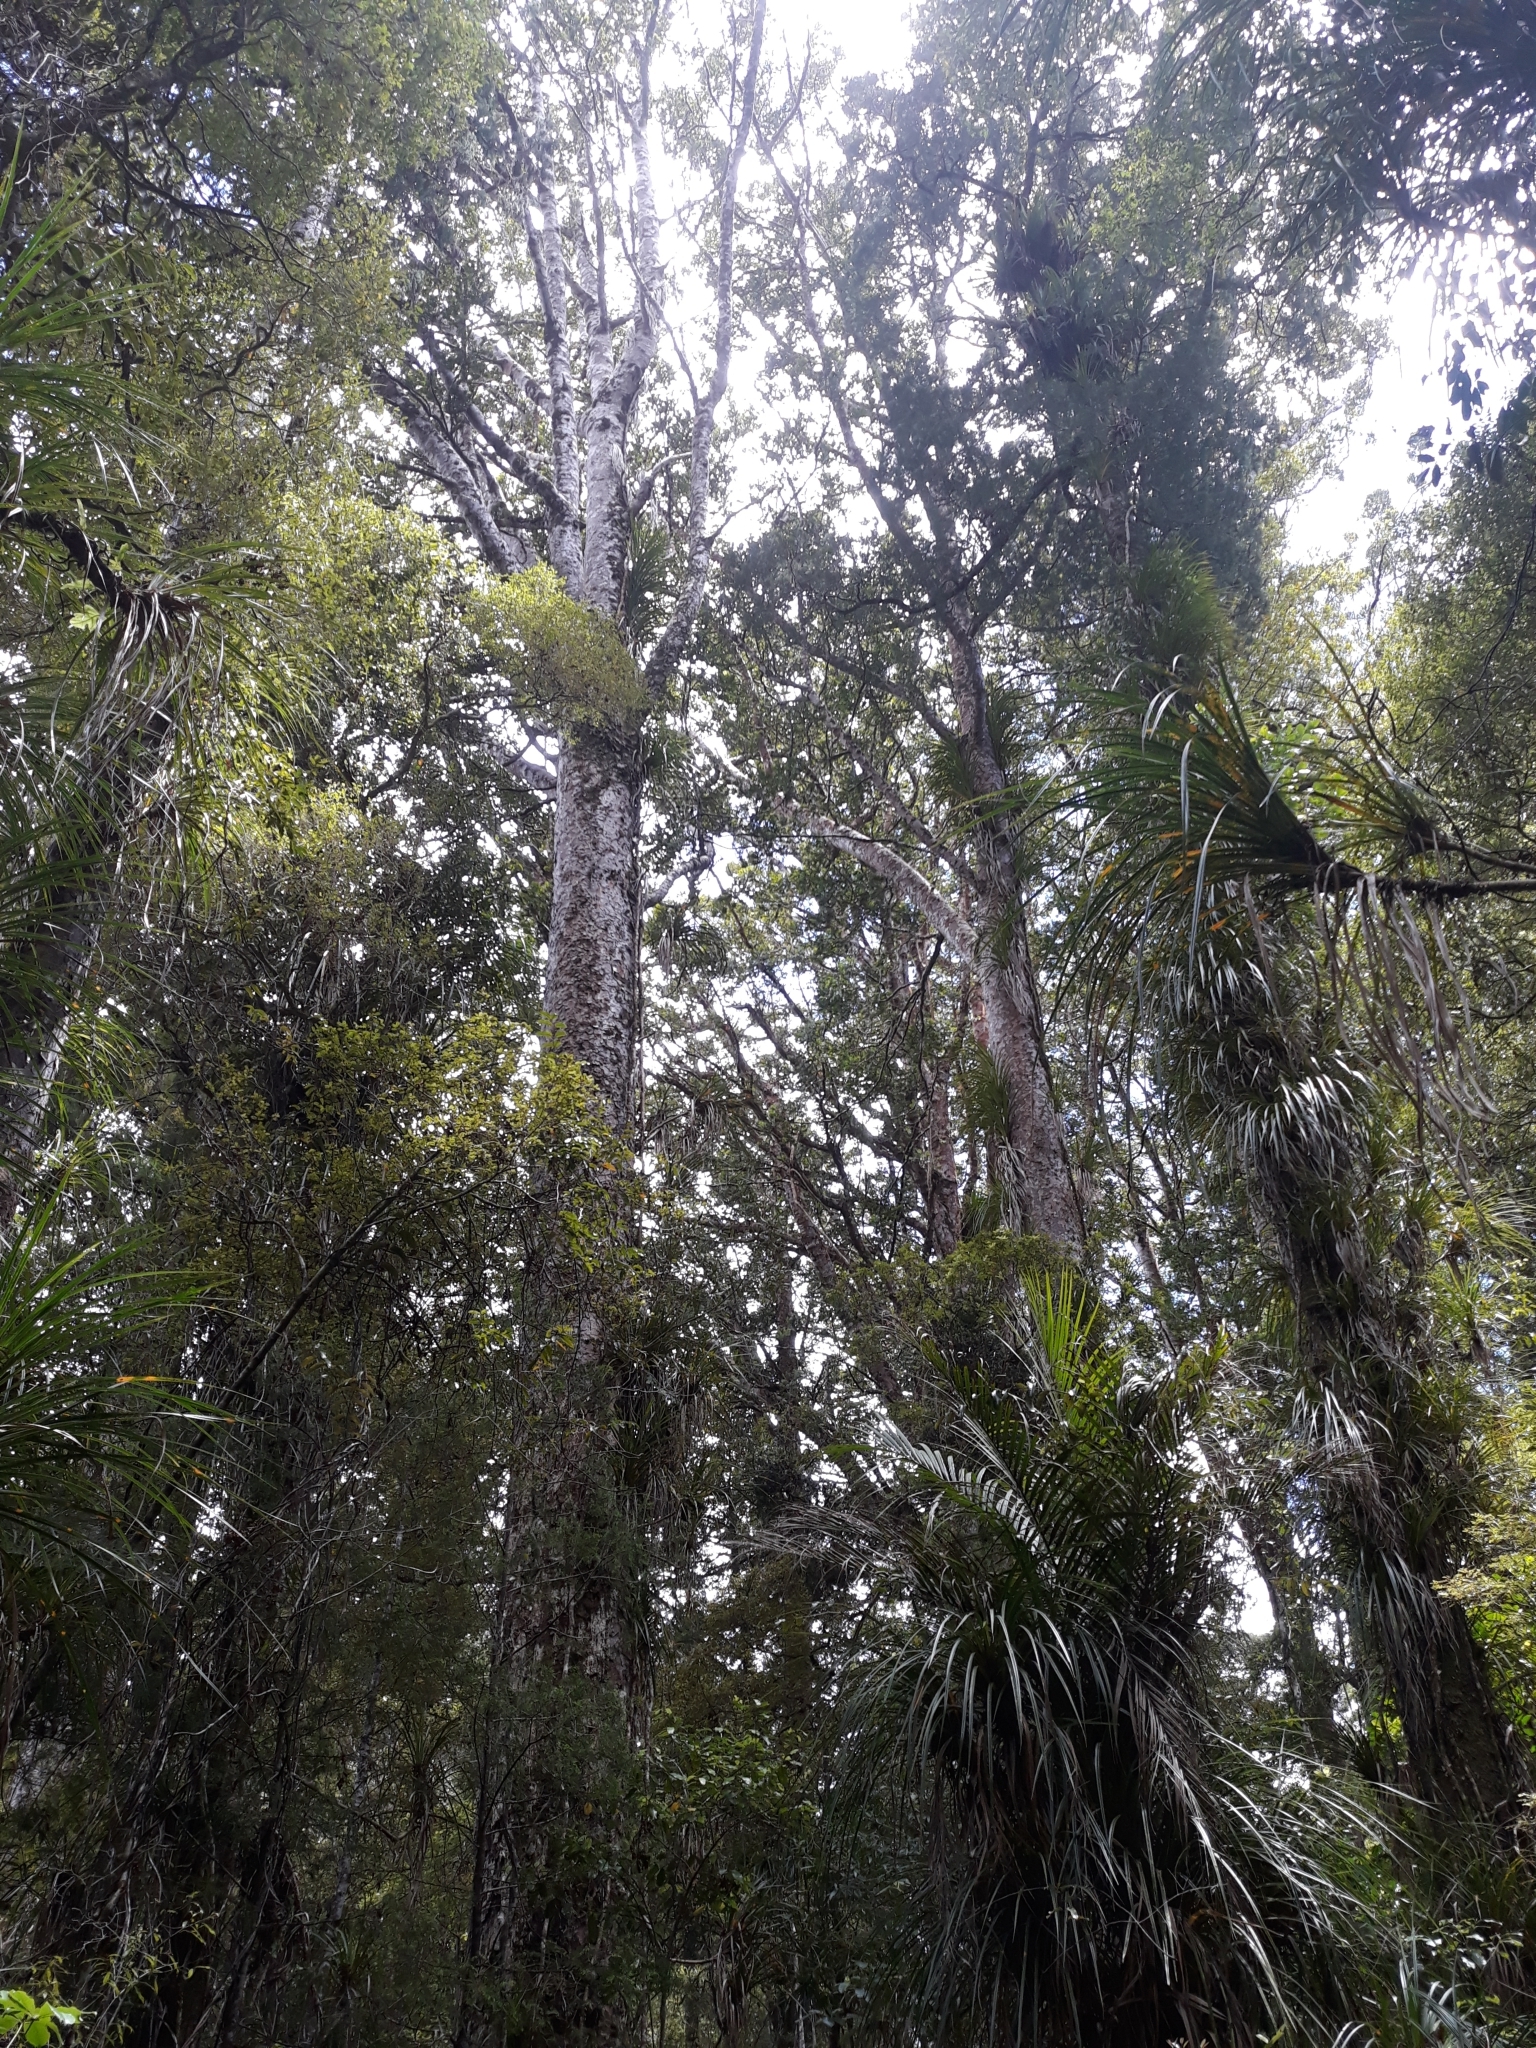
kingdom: Plantae
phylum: Tracheophyta
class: Pinopsida
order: Pinales
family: Araucariaceae
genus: Agathis
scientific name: Agathis australis
